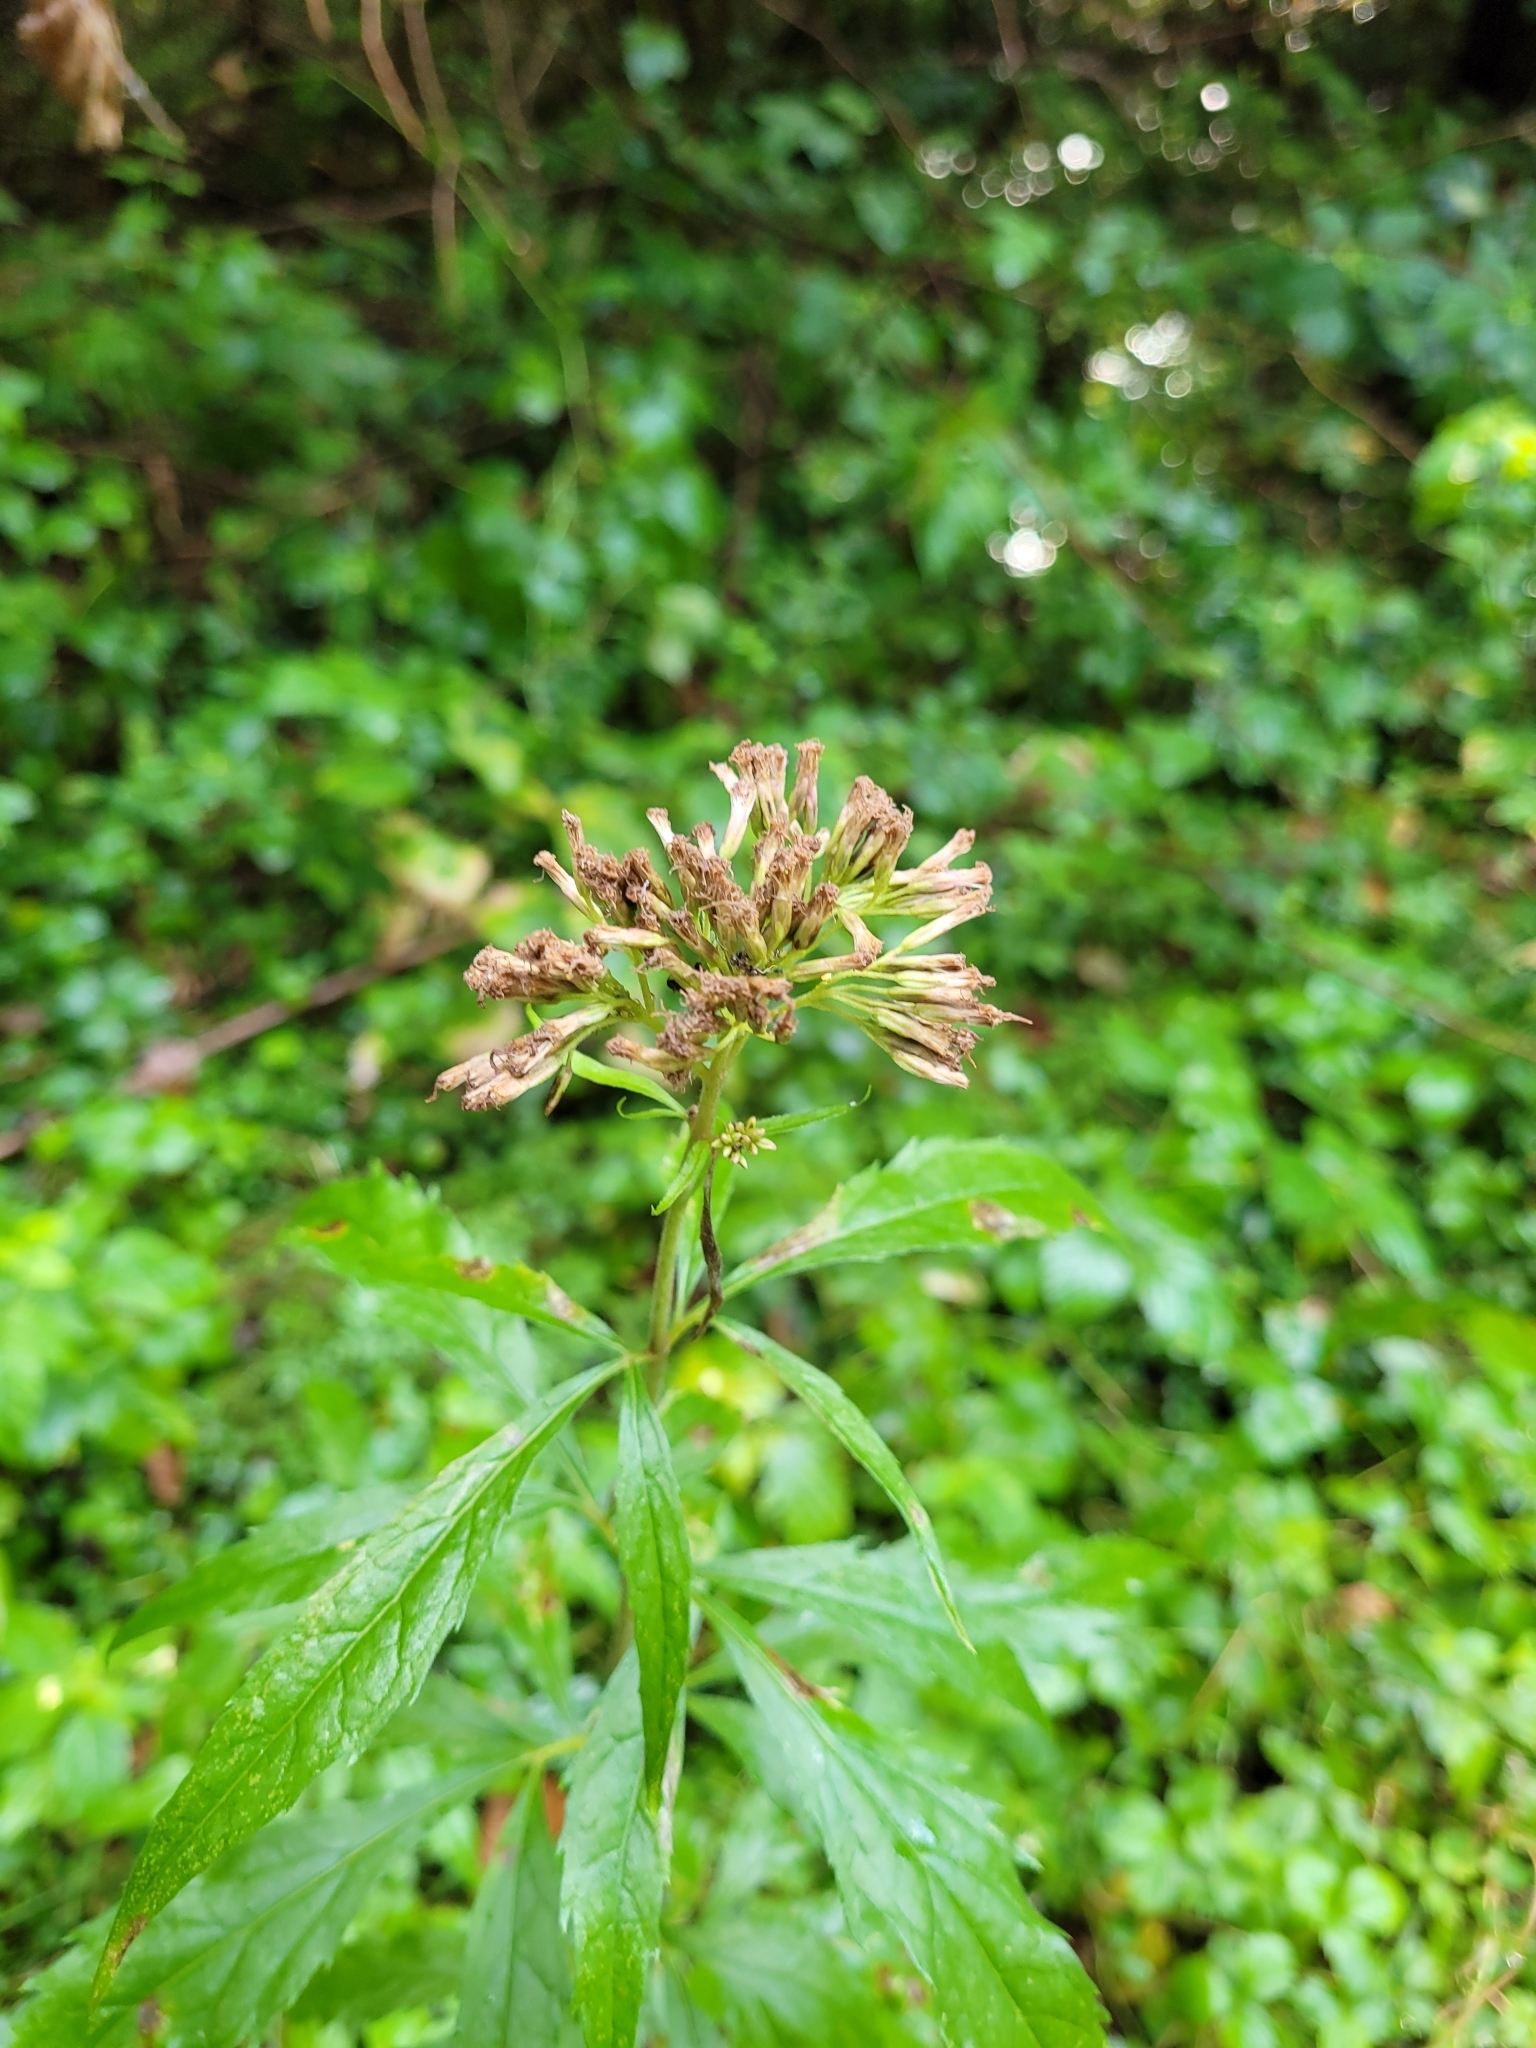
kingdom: Plantae
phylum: Tracheophyta
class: Magnoliopsida
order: Asterales
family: Asteraceae
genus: Eupatorium
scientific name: Eupatorium cannabinum
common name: Hemp-agrimony
